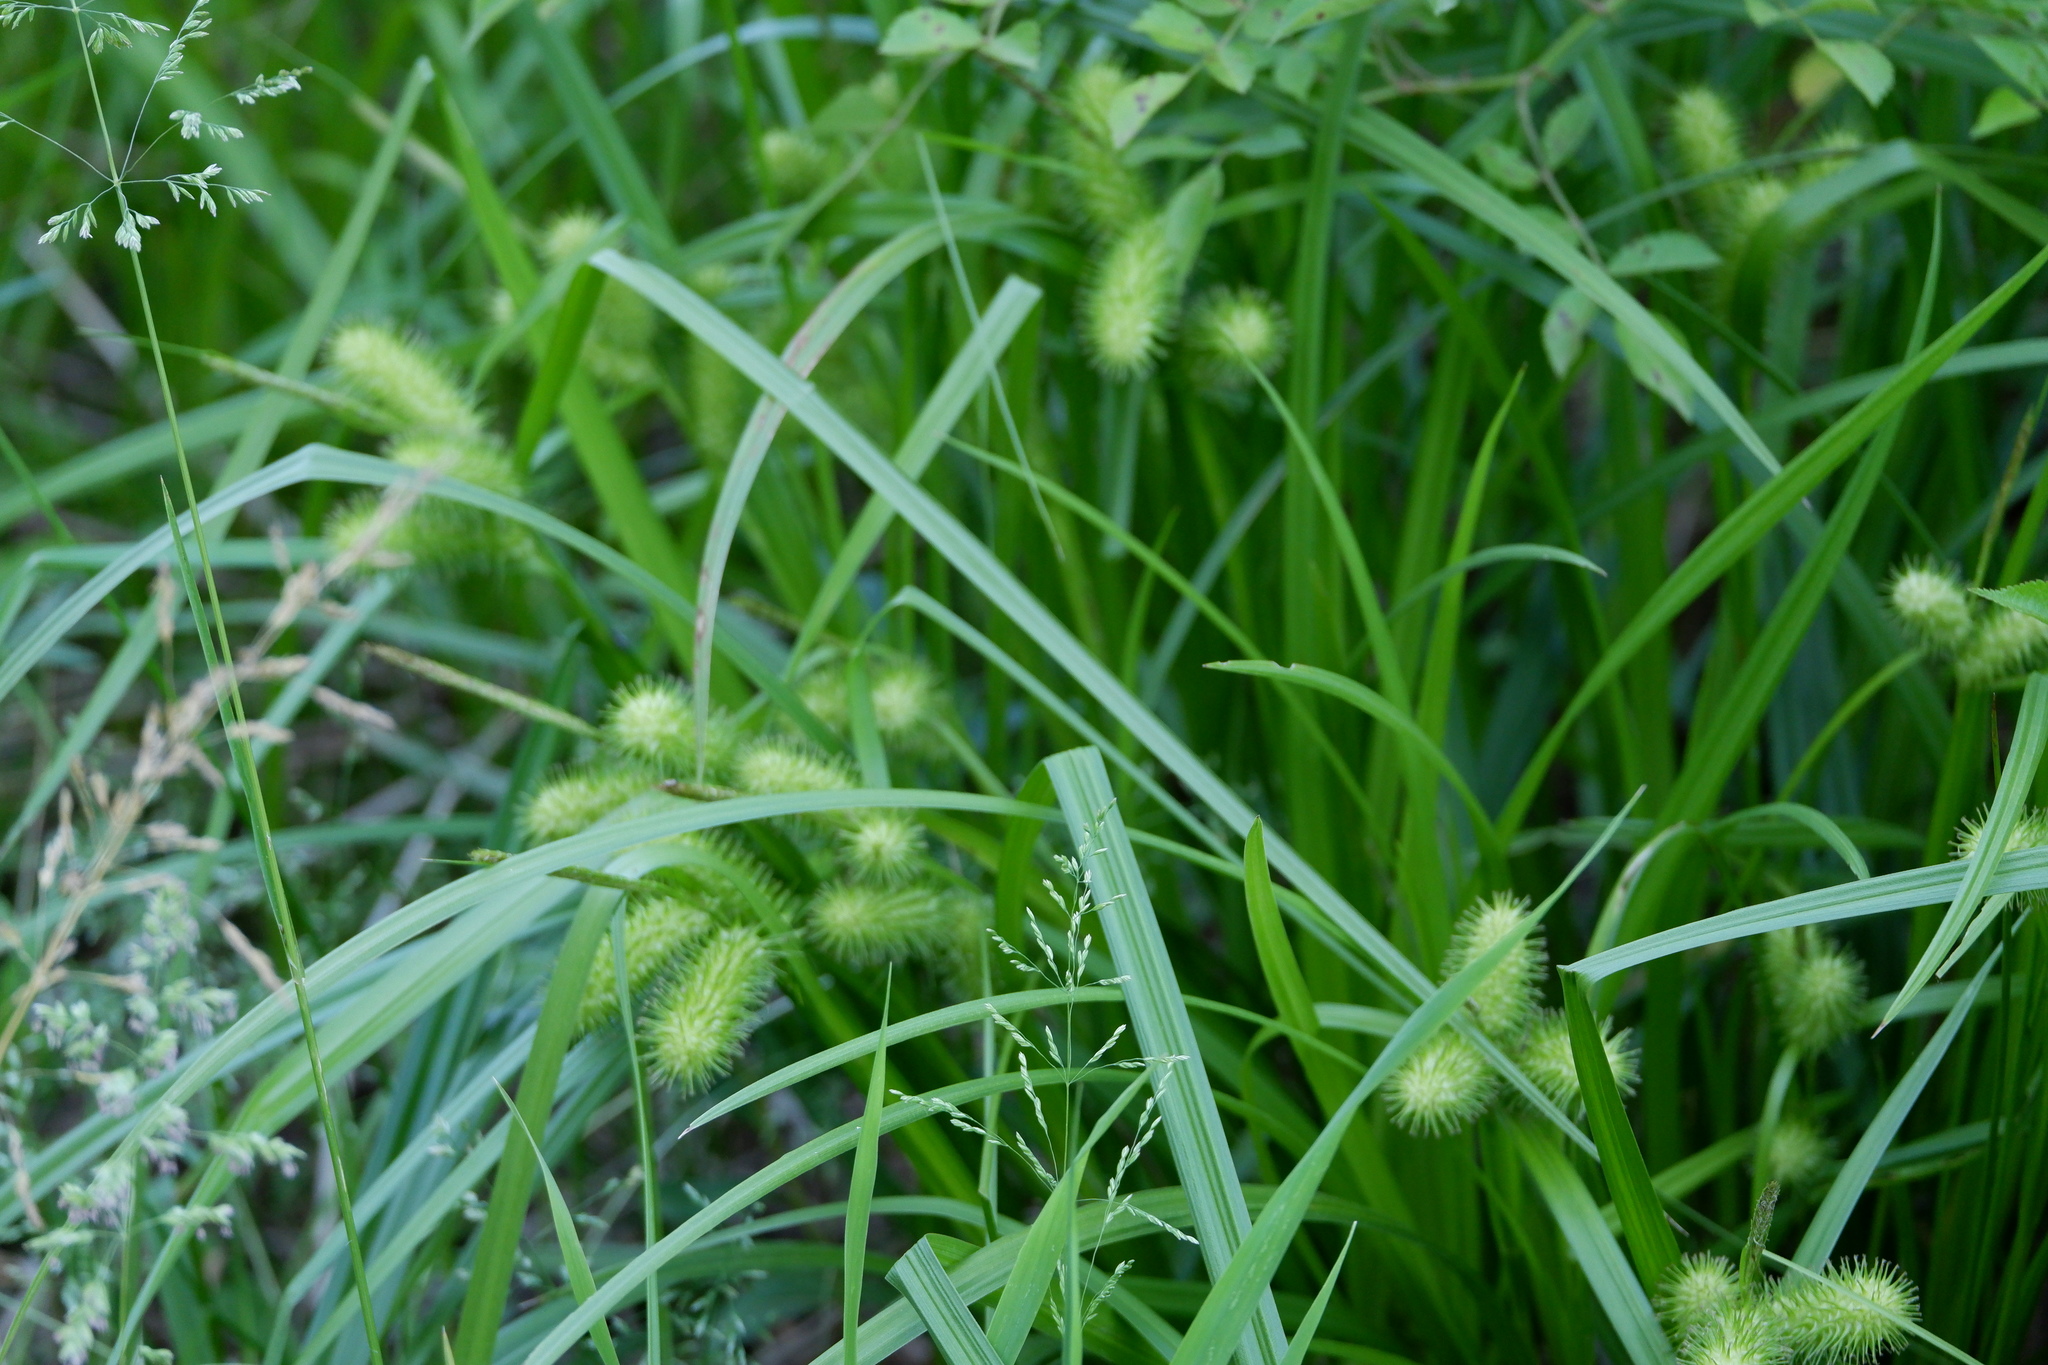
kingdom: Plantae
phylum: Tracheophyta
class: Liliopsida
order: Poales
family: Cyperaceae
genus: Carex
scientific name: Carex lurida
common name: Sallow sedge
